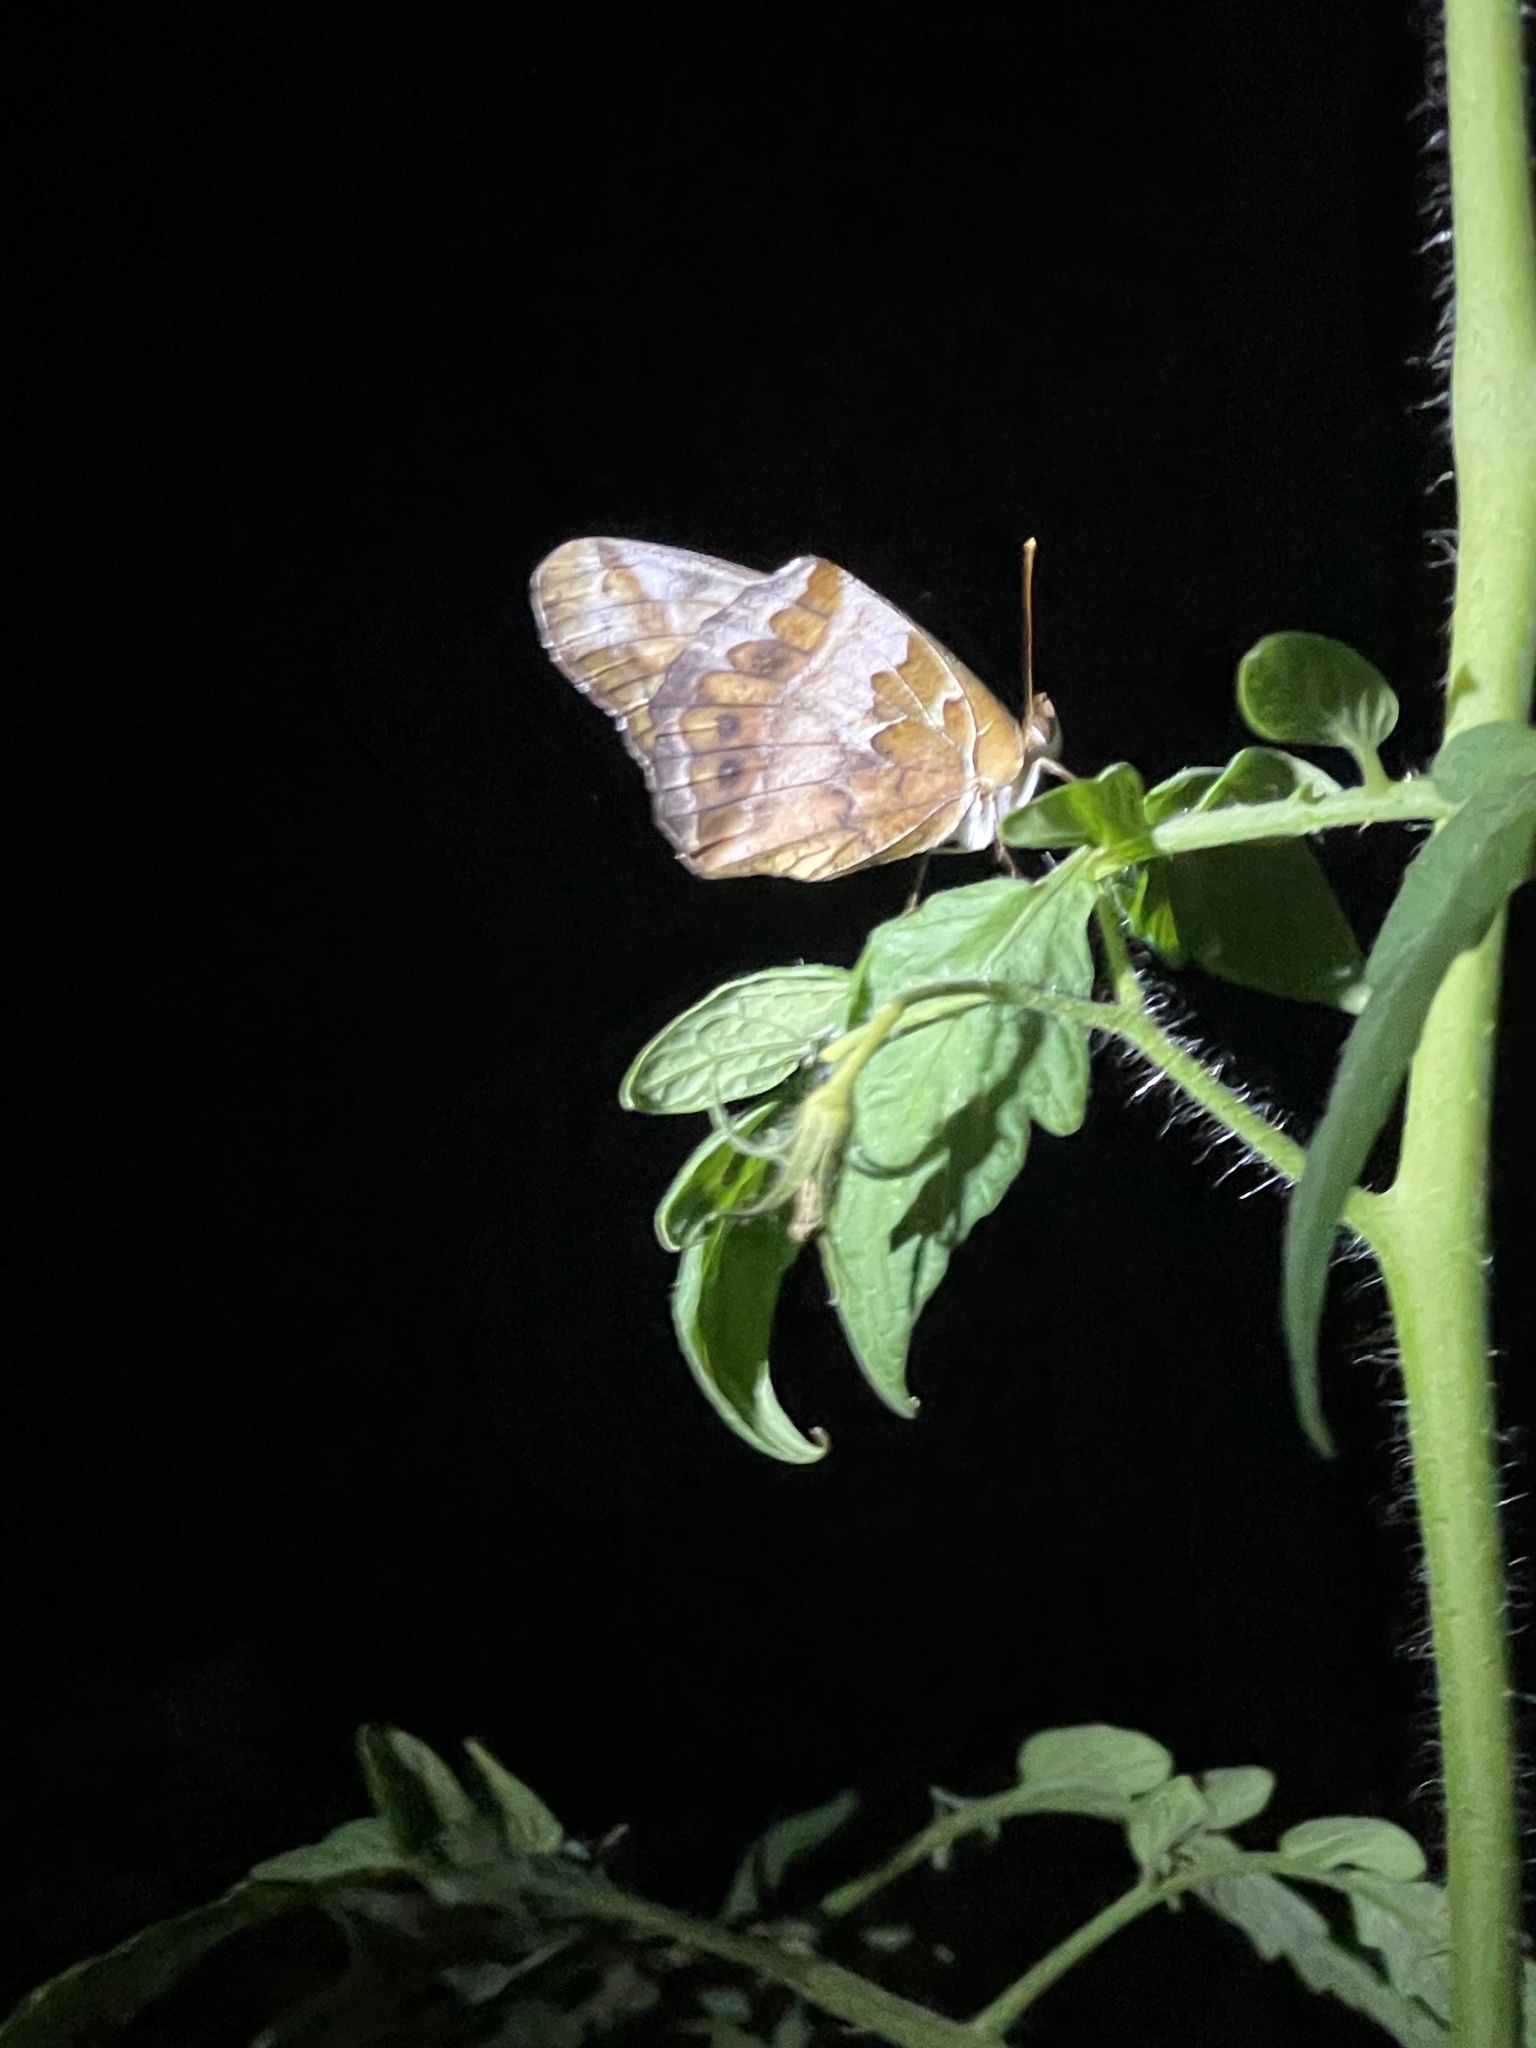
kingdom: Animalia
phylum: Arthropoda
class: Insecta
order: Lepidoptera
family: Nymphalidae
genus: Euptoieta
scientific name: Euptoieta claudia
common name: Variegated fritillary
